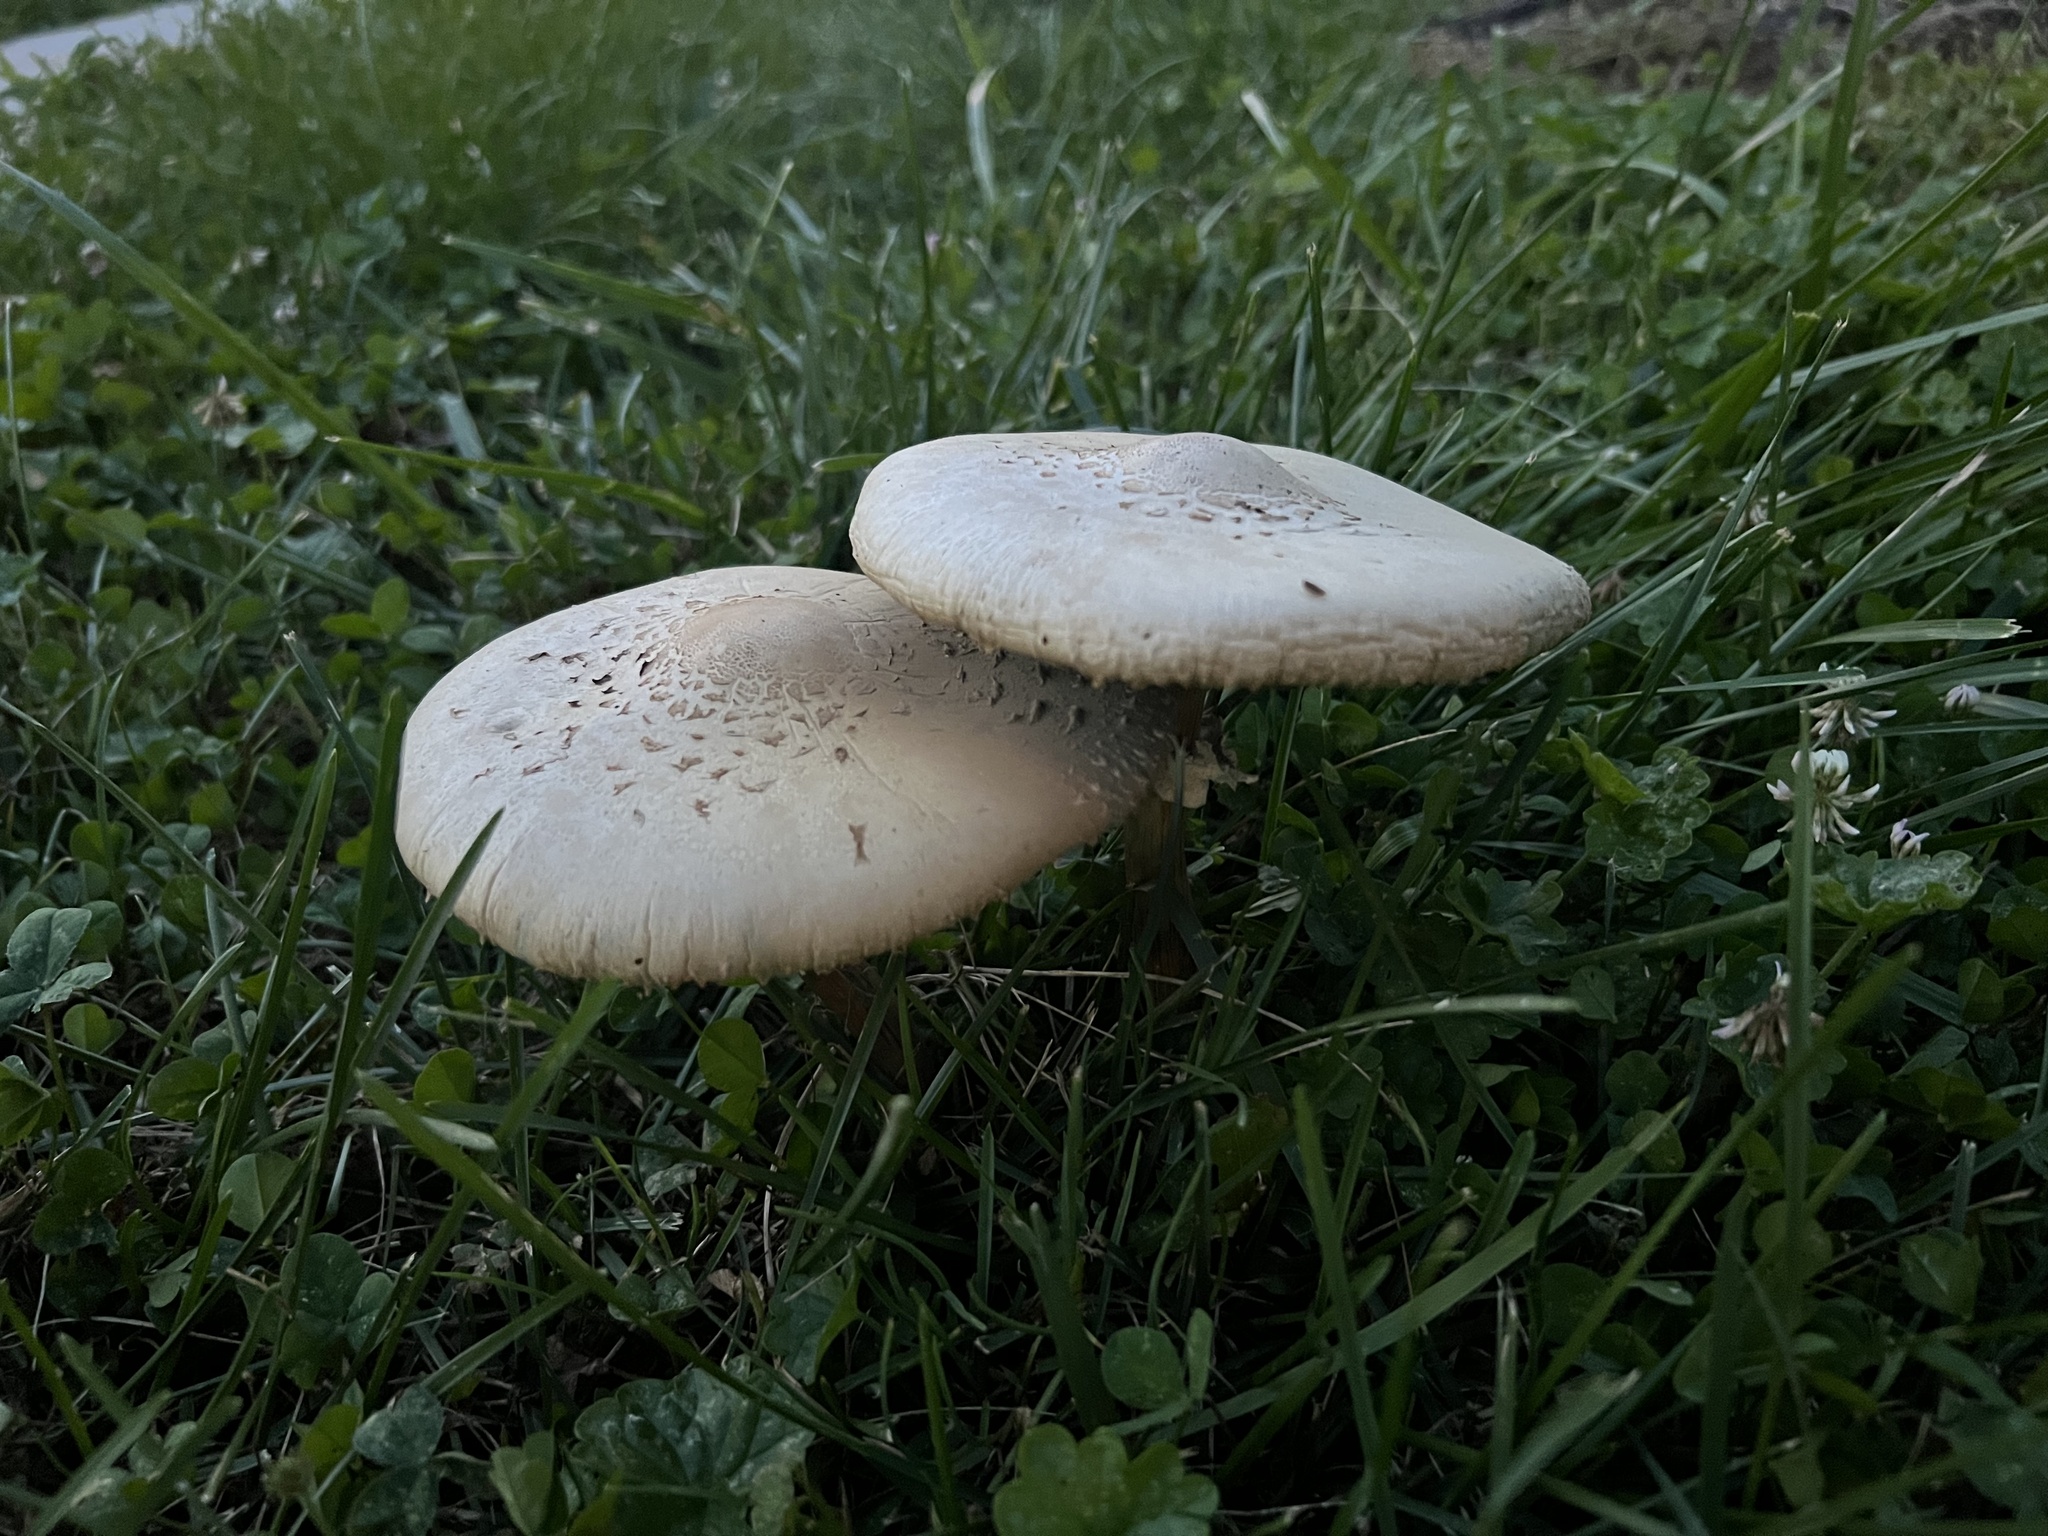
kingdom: Fungi
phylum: Basidiomycota
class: Agaricomycetes
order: Agaricales
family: Agaricaceae
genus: Chlorophyllum
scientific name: Chlorophyllum molybdites
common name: False parasol
